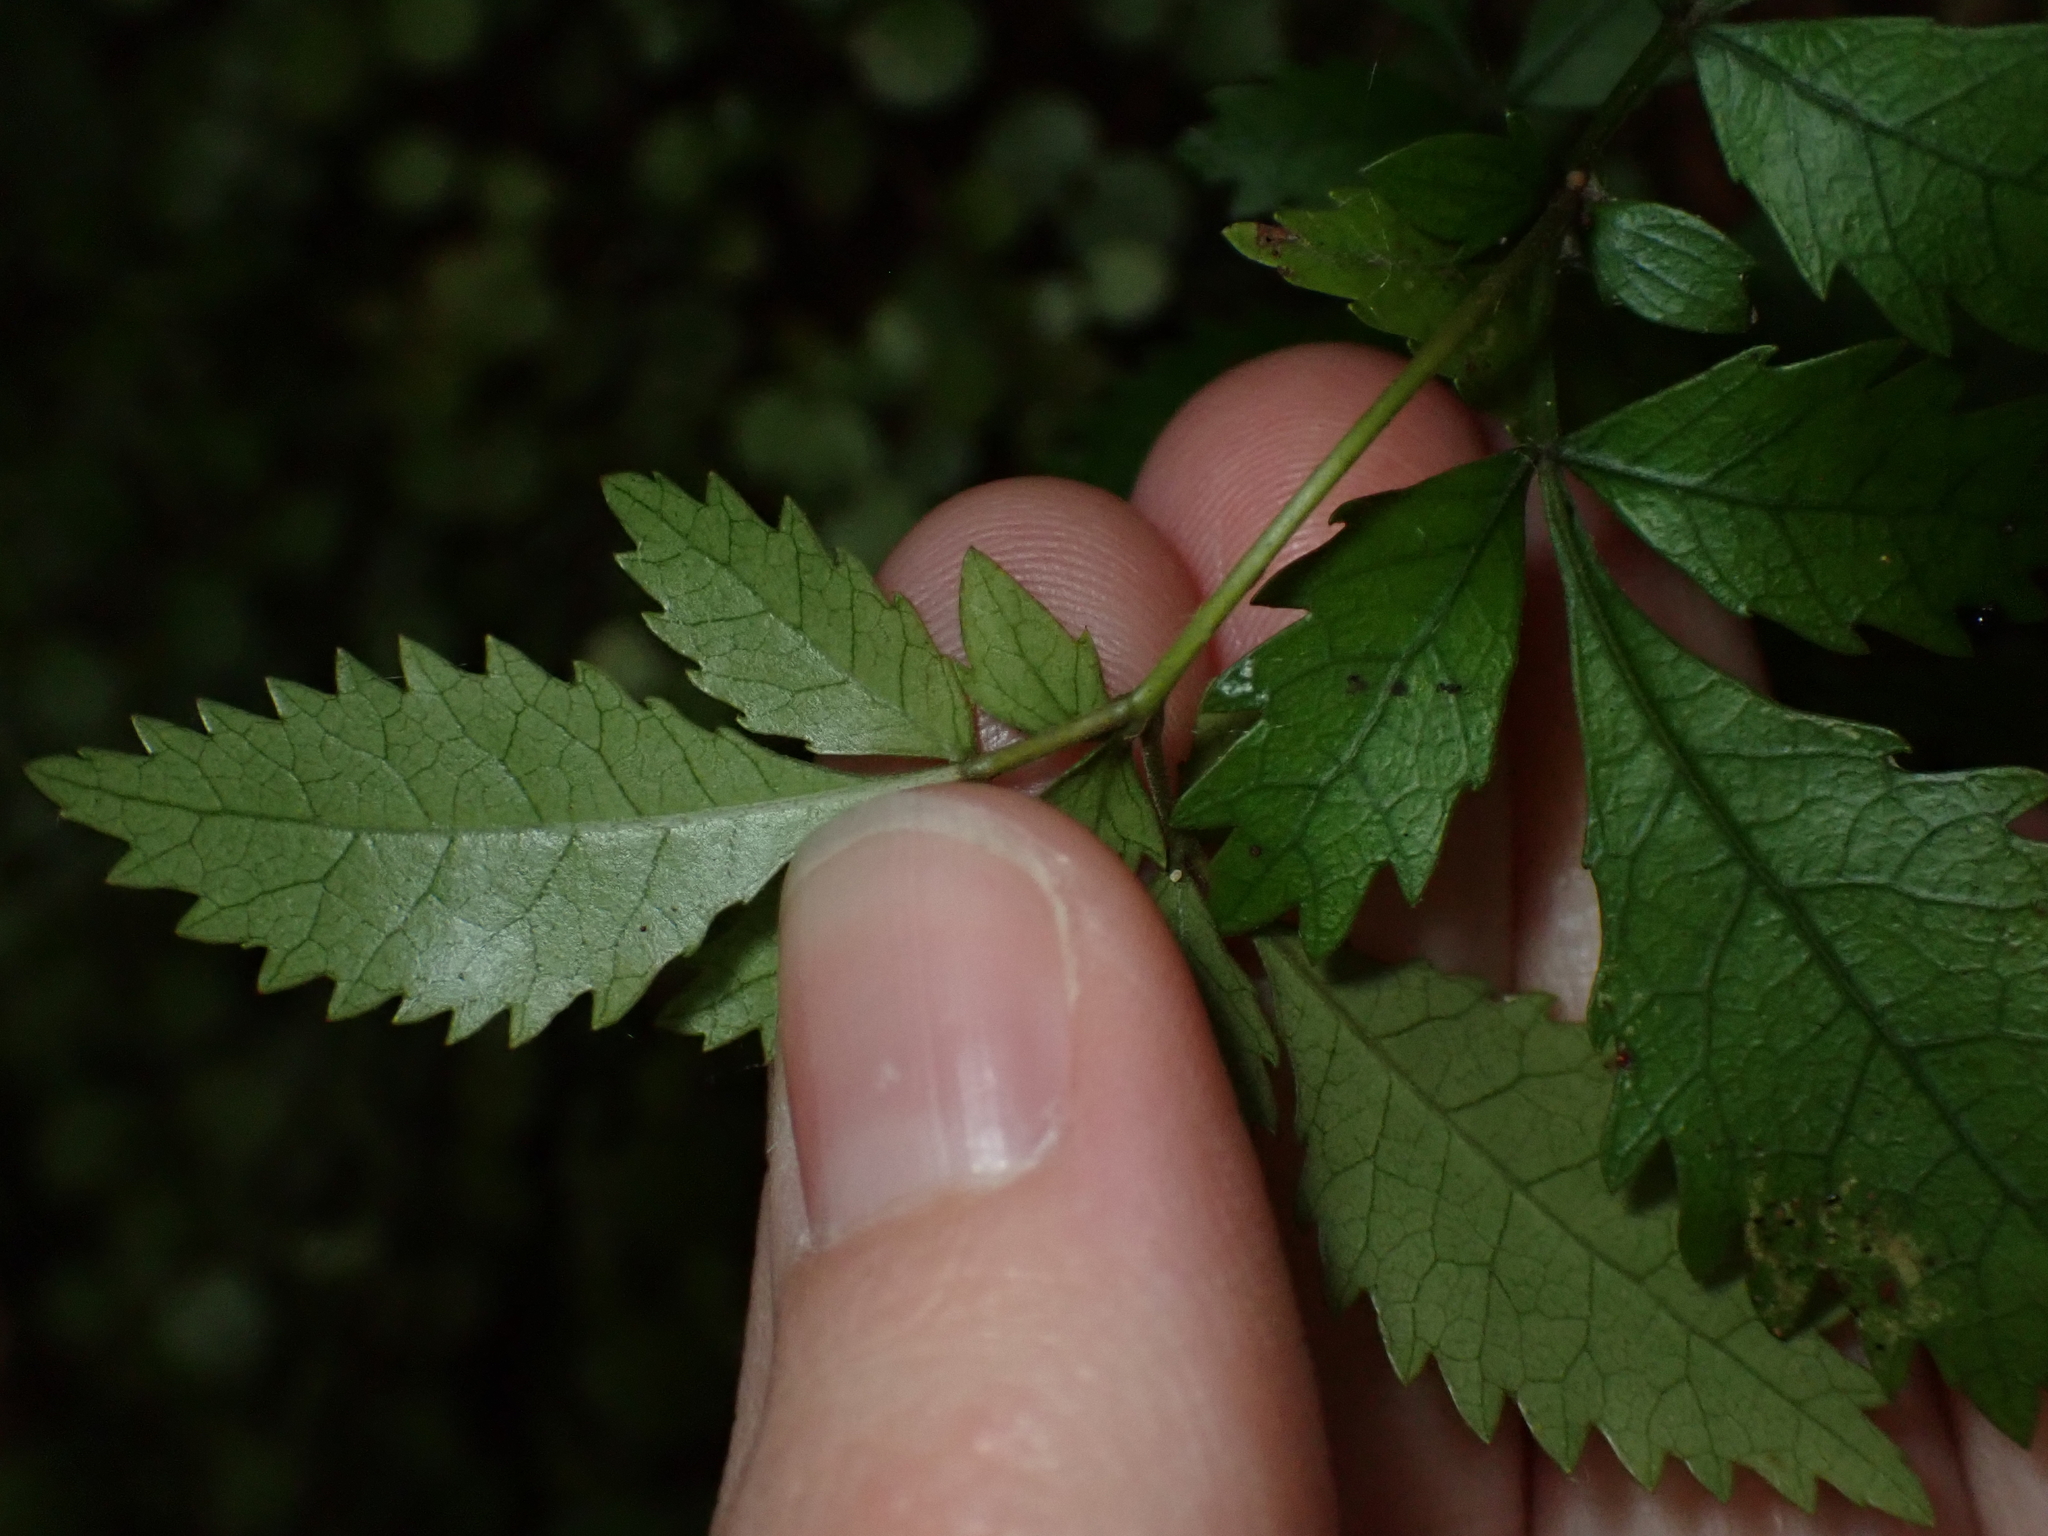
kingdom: Plantae
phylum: Tracheophyta
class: Magnoliopsida
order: Oxalidales
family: Cunoniaceae
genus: Pterophylla
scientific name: Pterophylla racemosa
